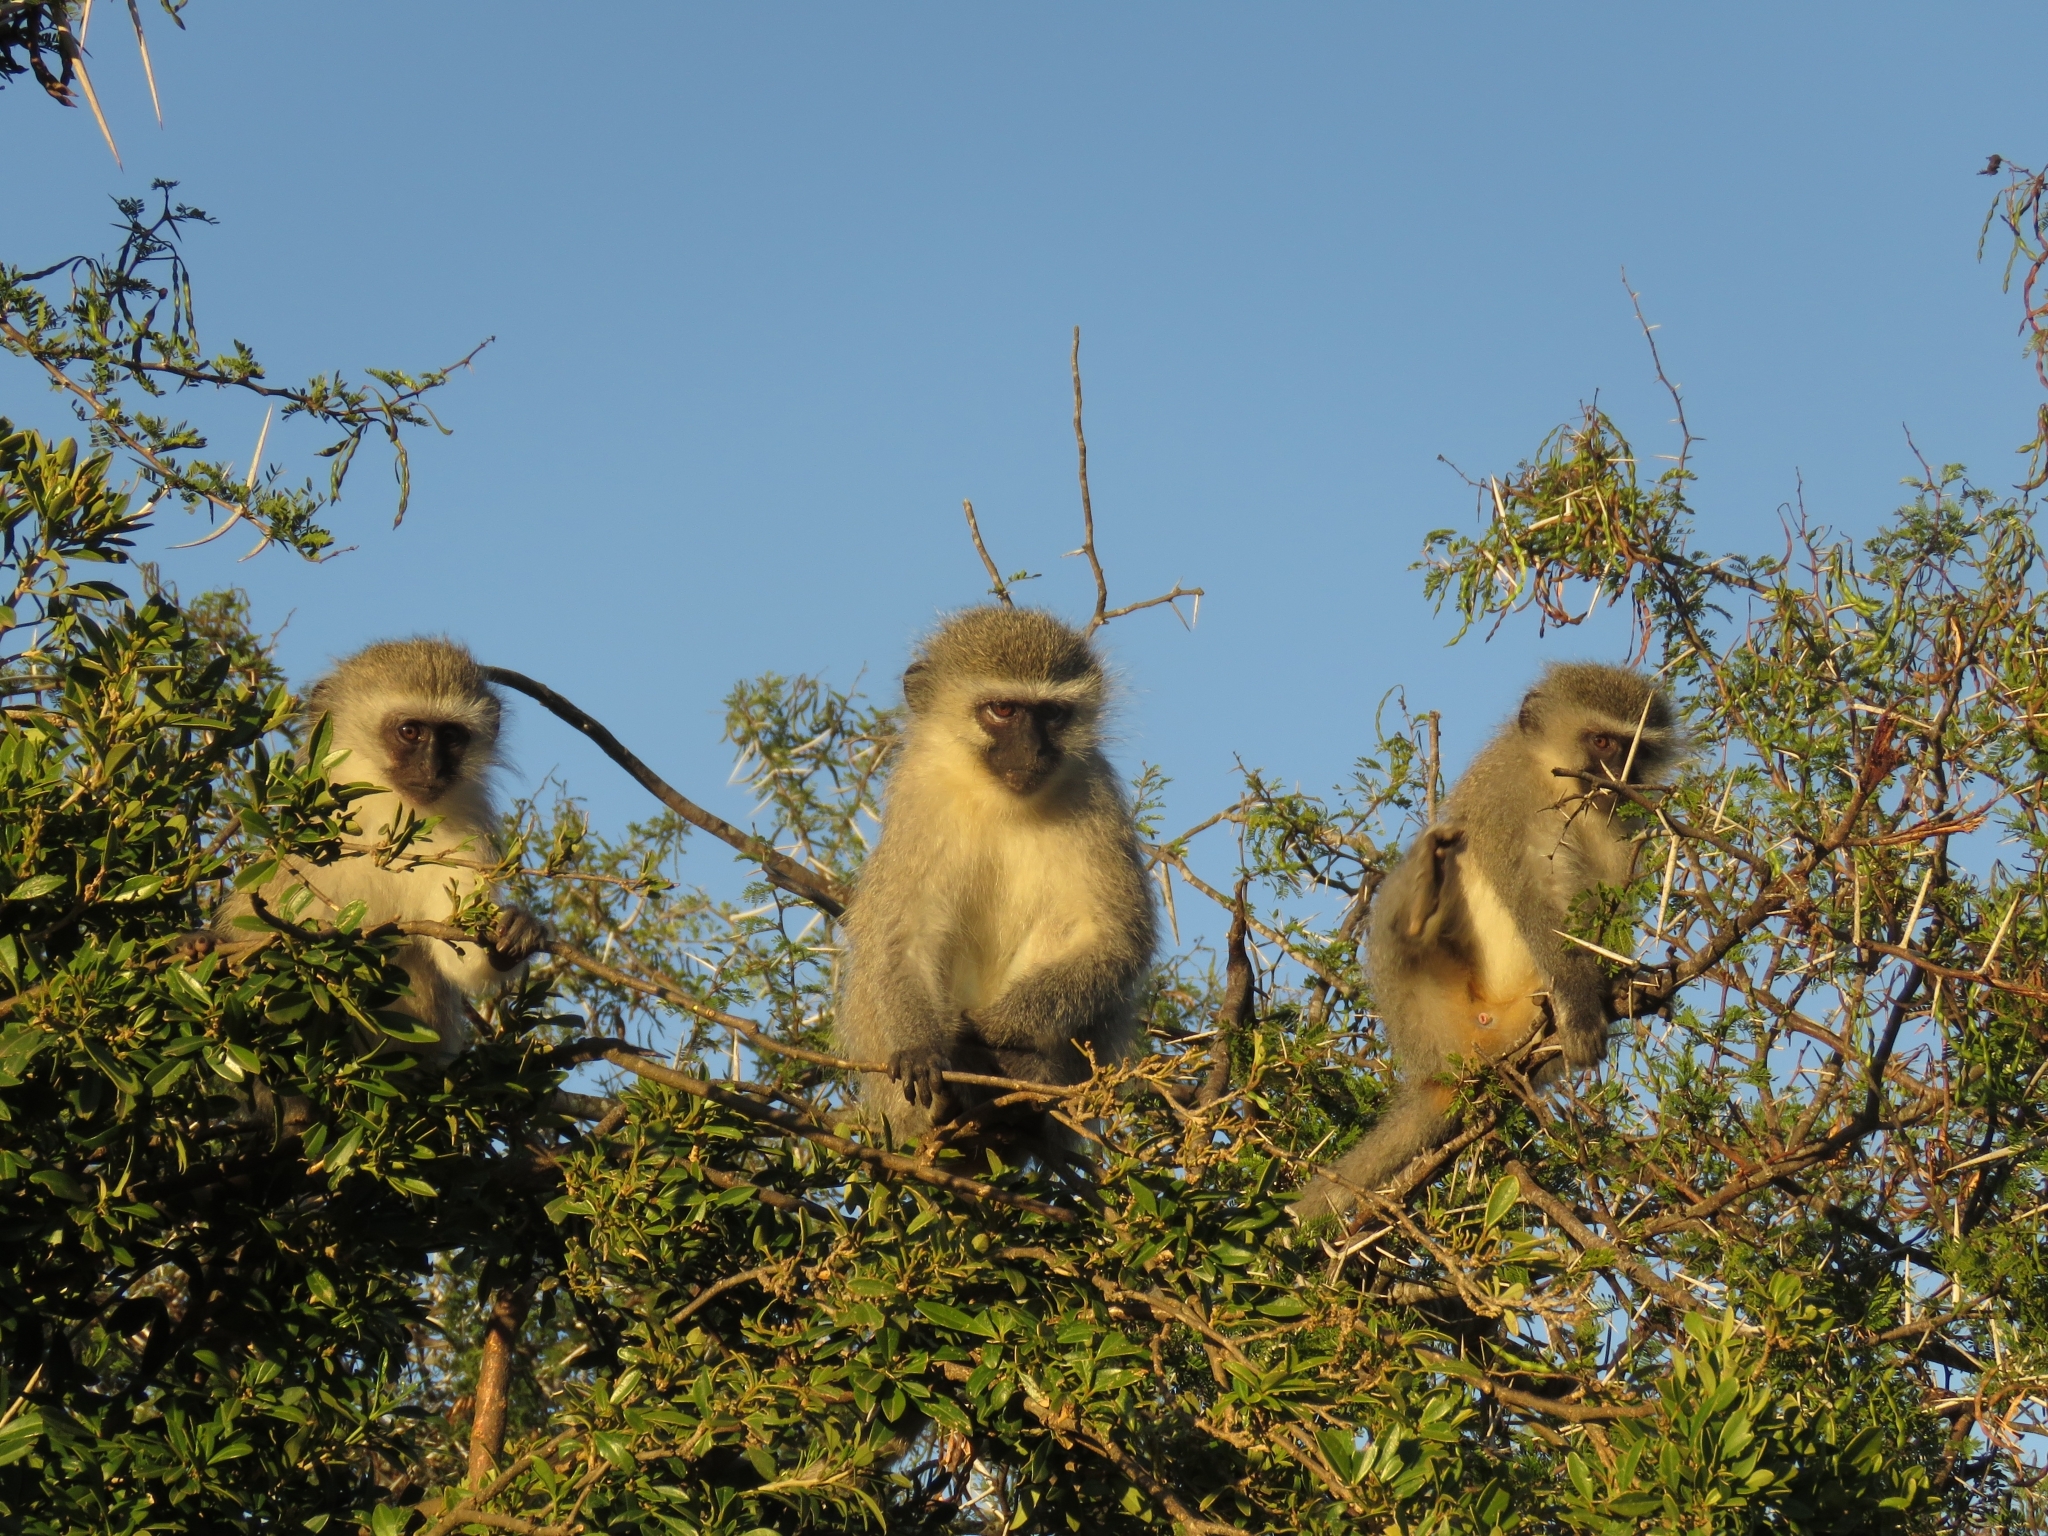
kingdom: Animalia
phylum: Chordata
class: Mammalia
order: Primates
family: Cercopithecidae
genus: Chlorocebus
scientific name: Chlorocebus pygerythrus
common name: Vervet monkey
